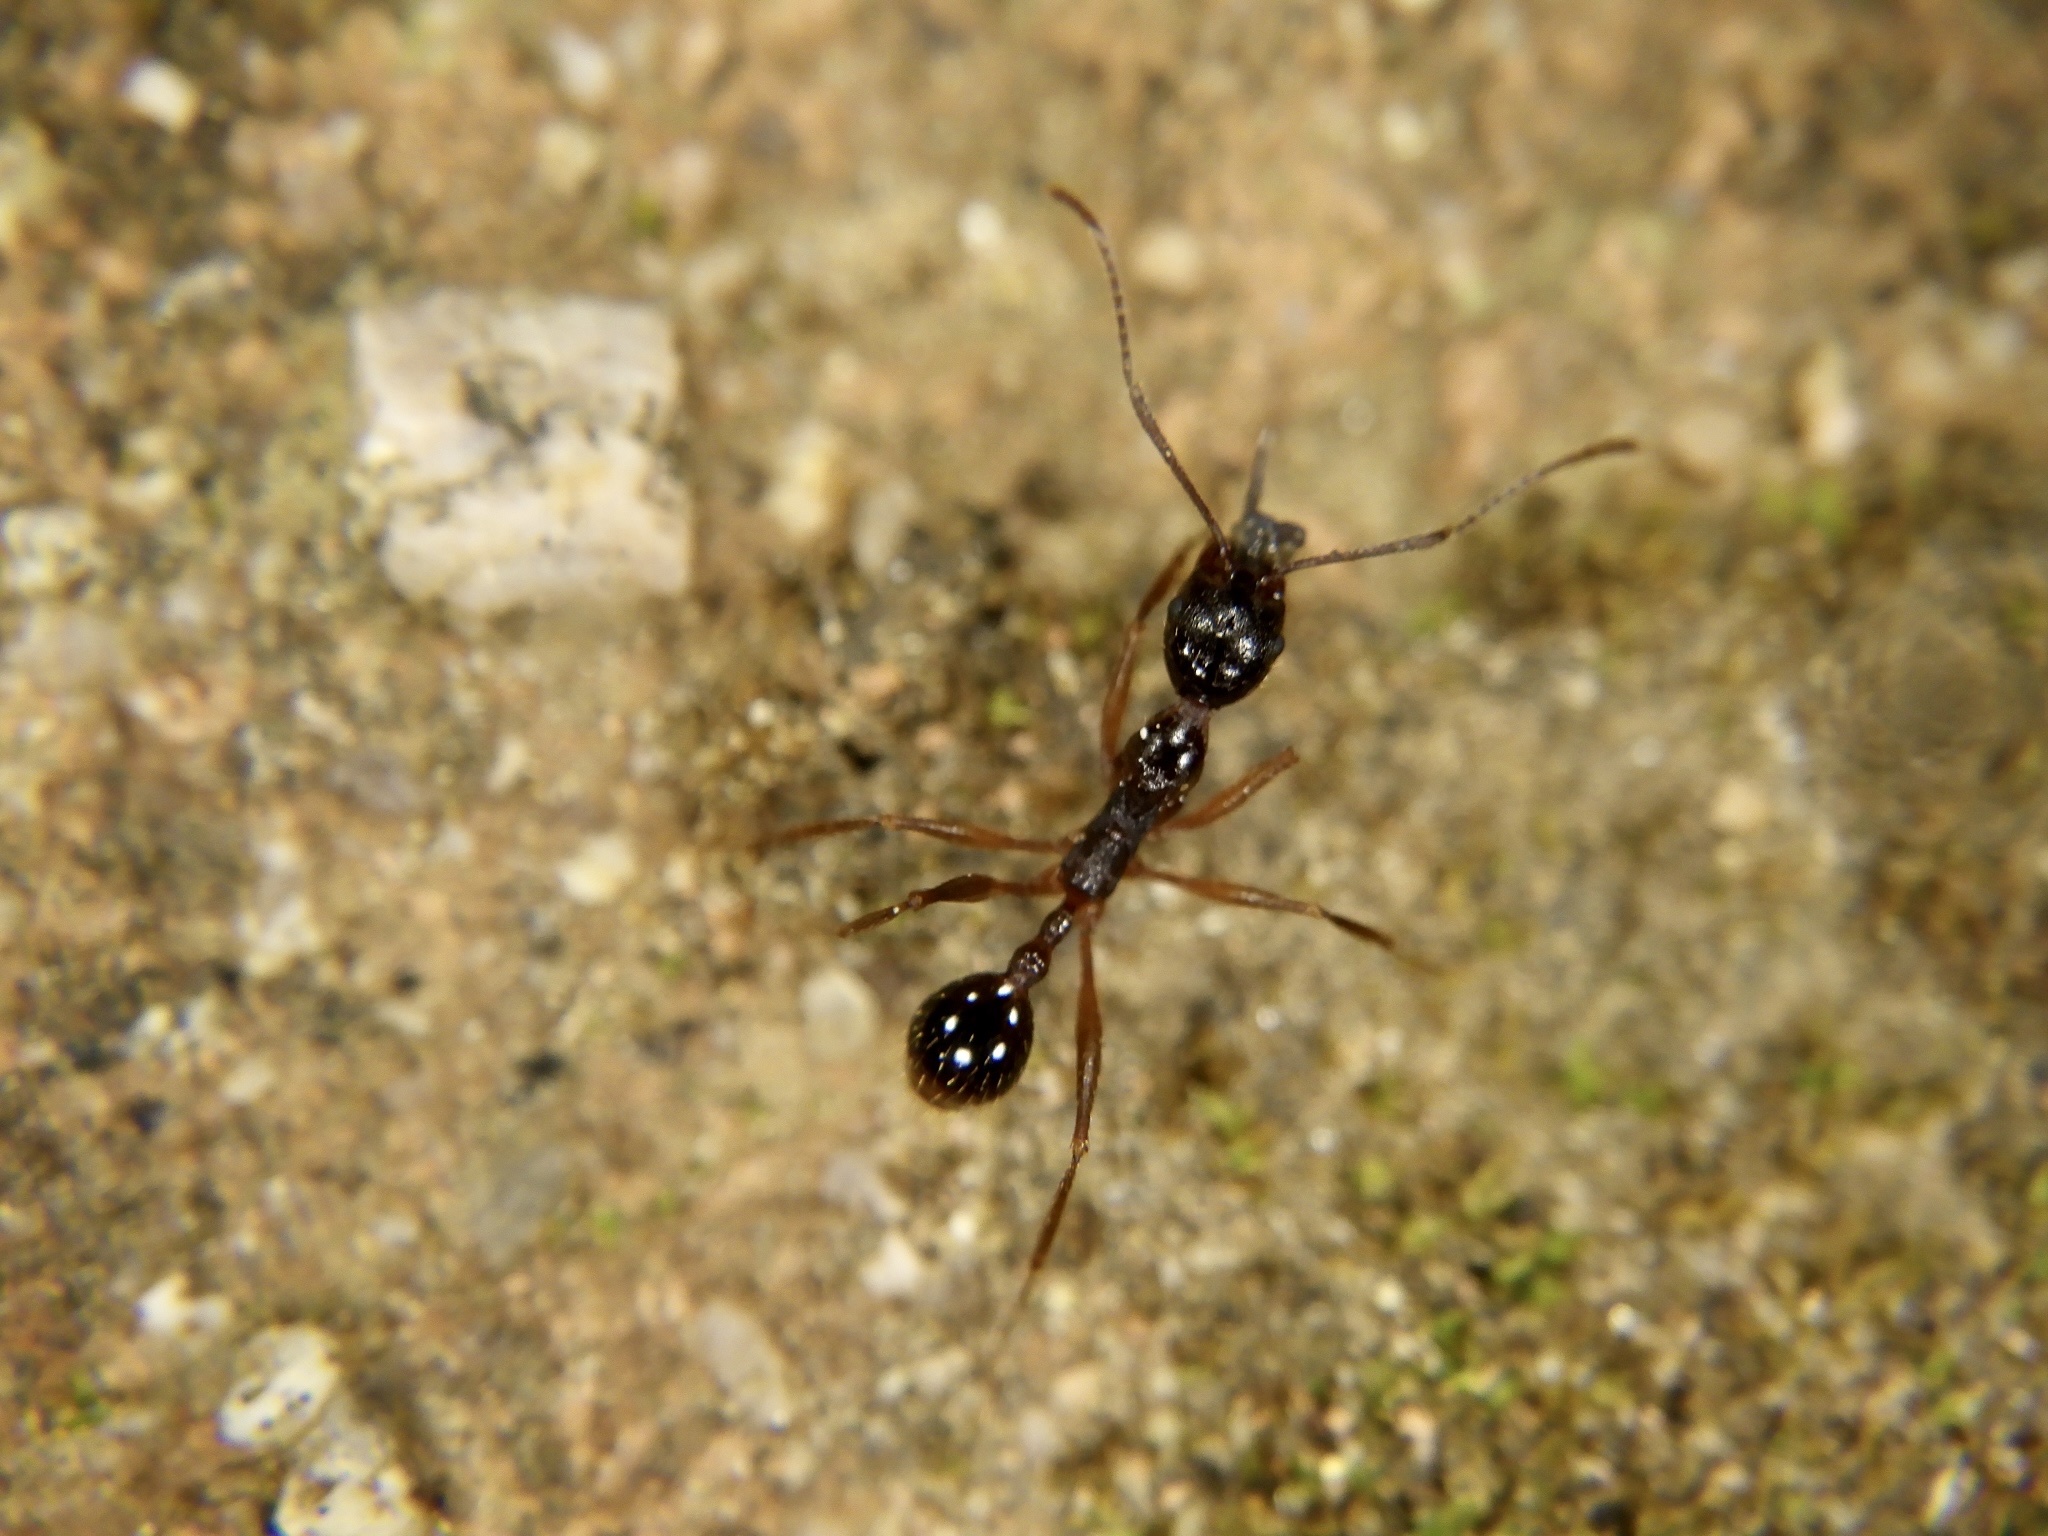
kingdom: Animalia
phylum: Arthropoda
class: Insecta
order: Hymenoptera
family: Formicidae
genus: Aphaenogaster
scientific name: Aphaenogaster famelica
